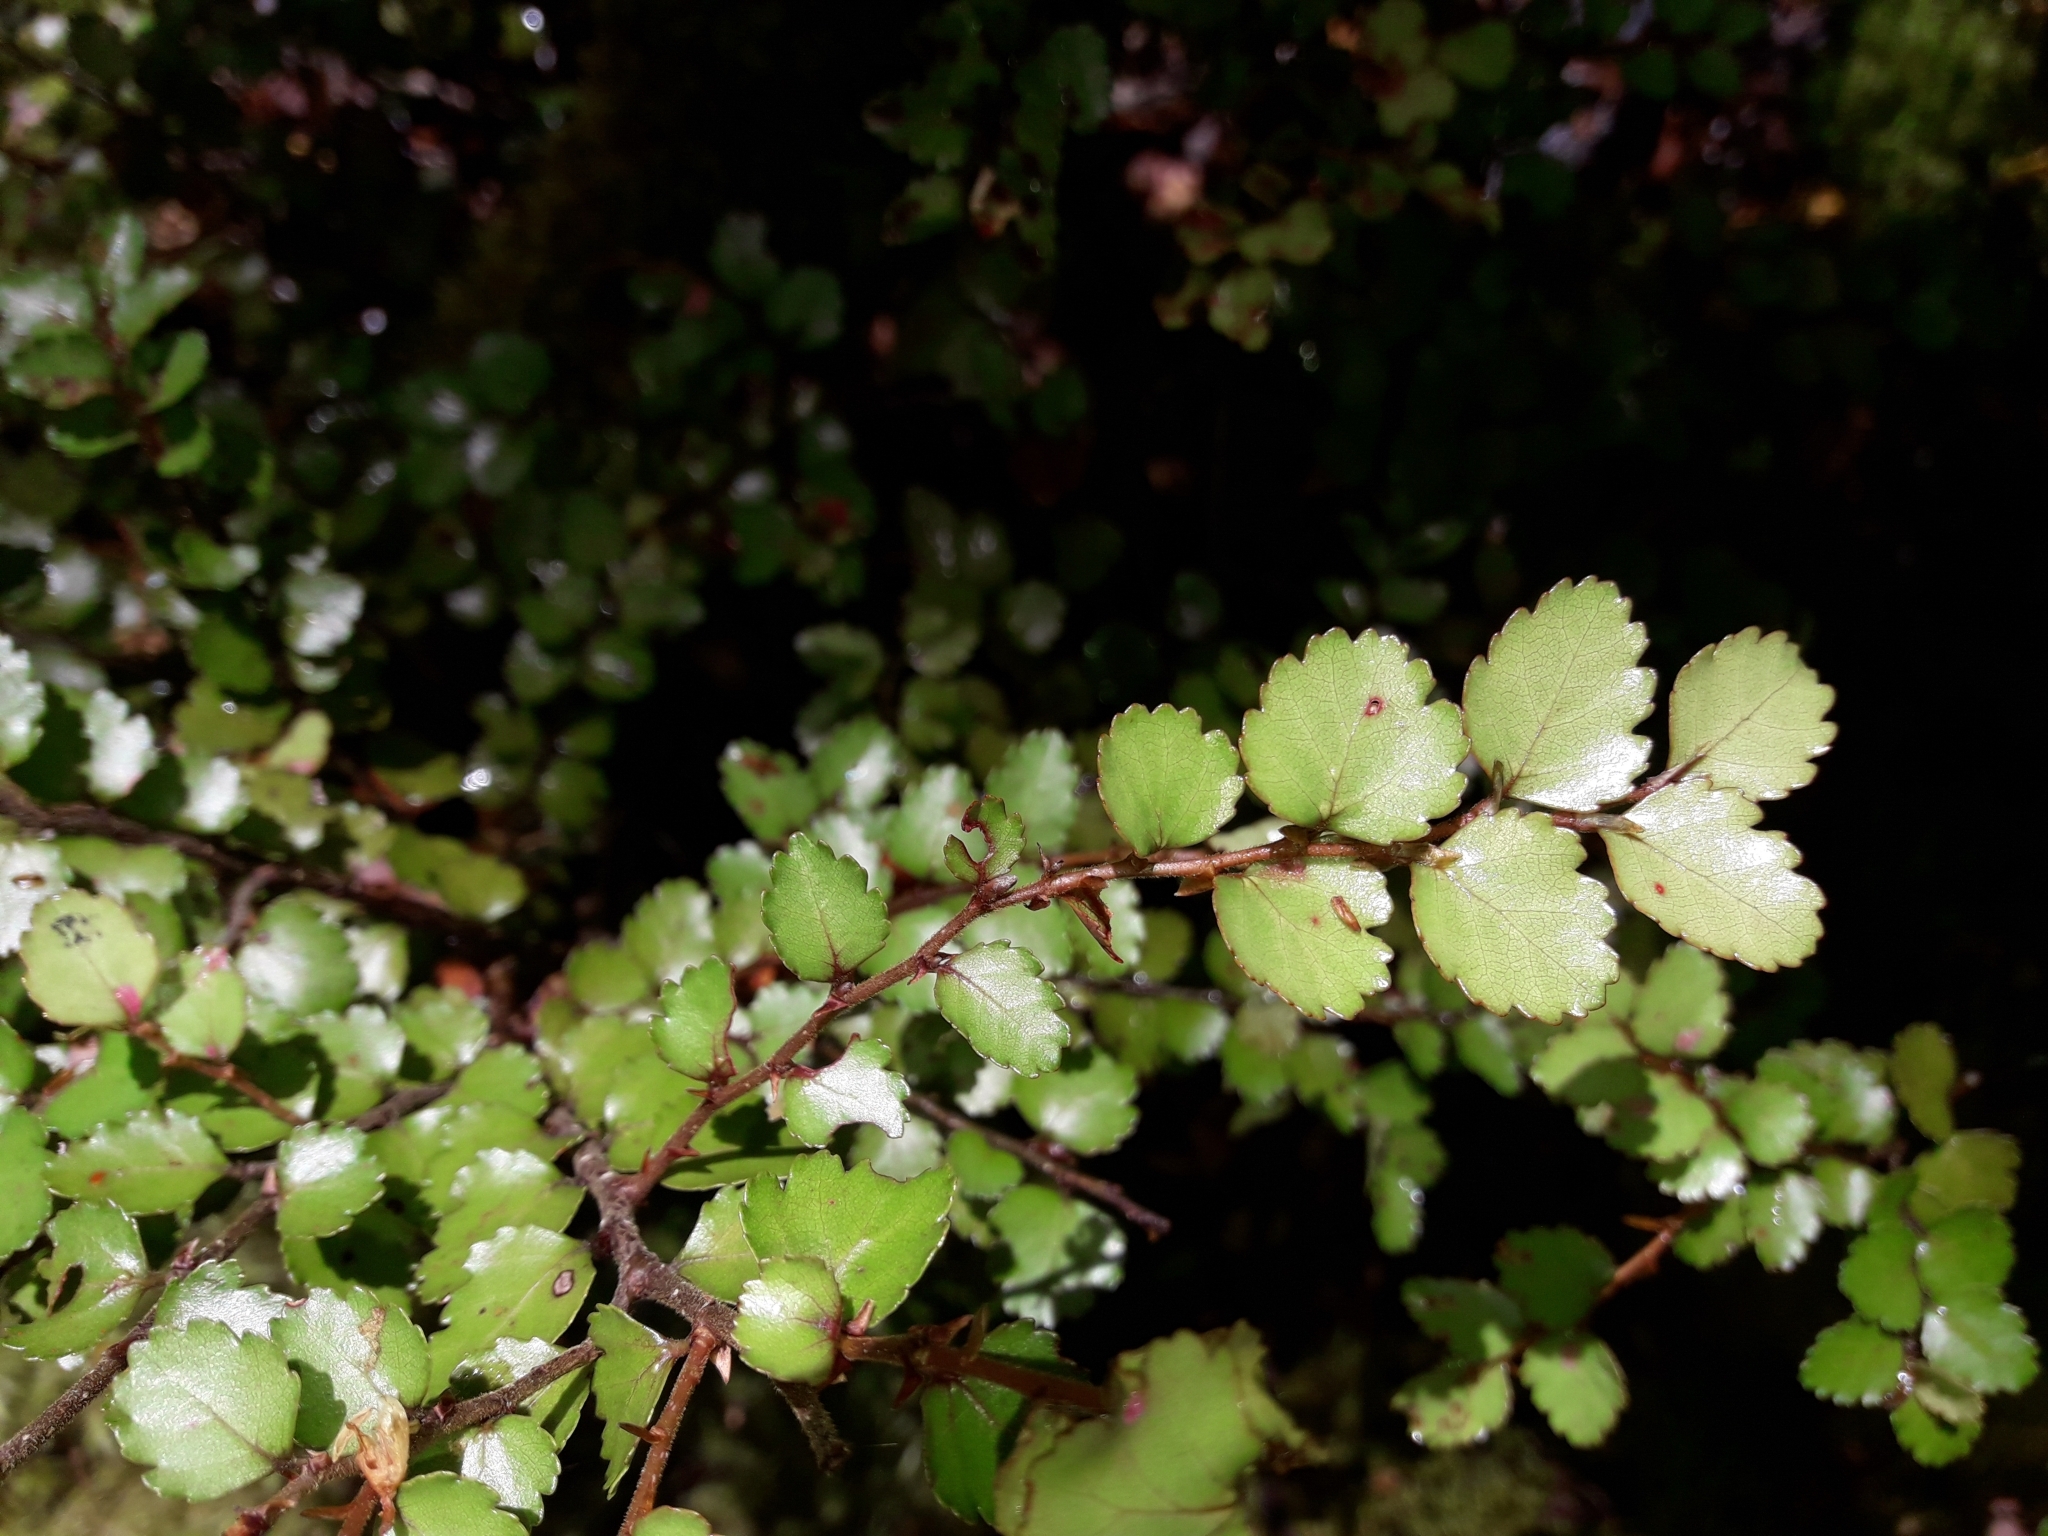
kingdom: Plantae
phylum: Tracheophyta
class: Magnoliopsida
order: Fagales
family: Nothofagaceae
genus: Nothofagus
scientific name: Nothofagus menziesii
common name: Silver beech
